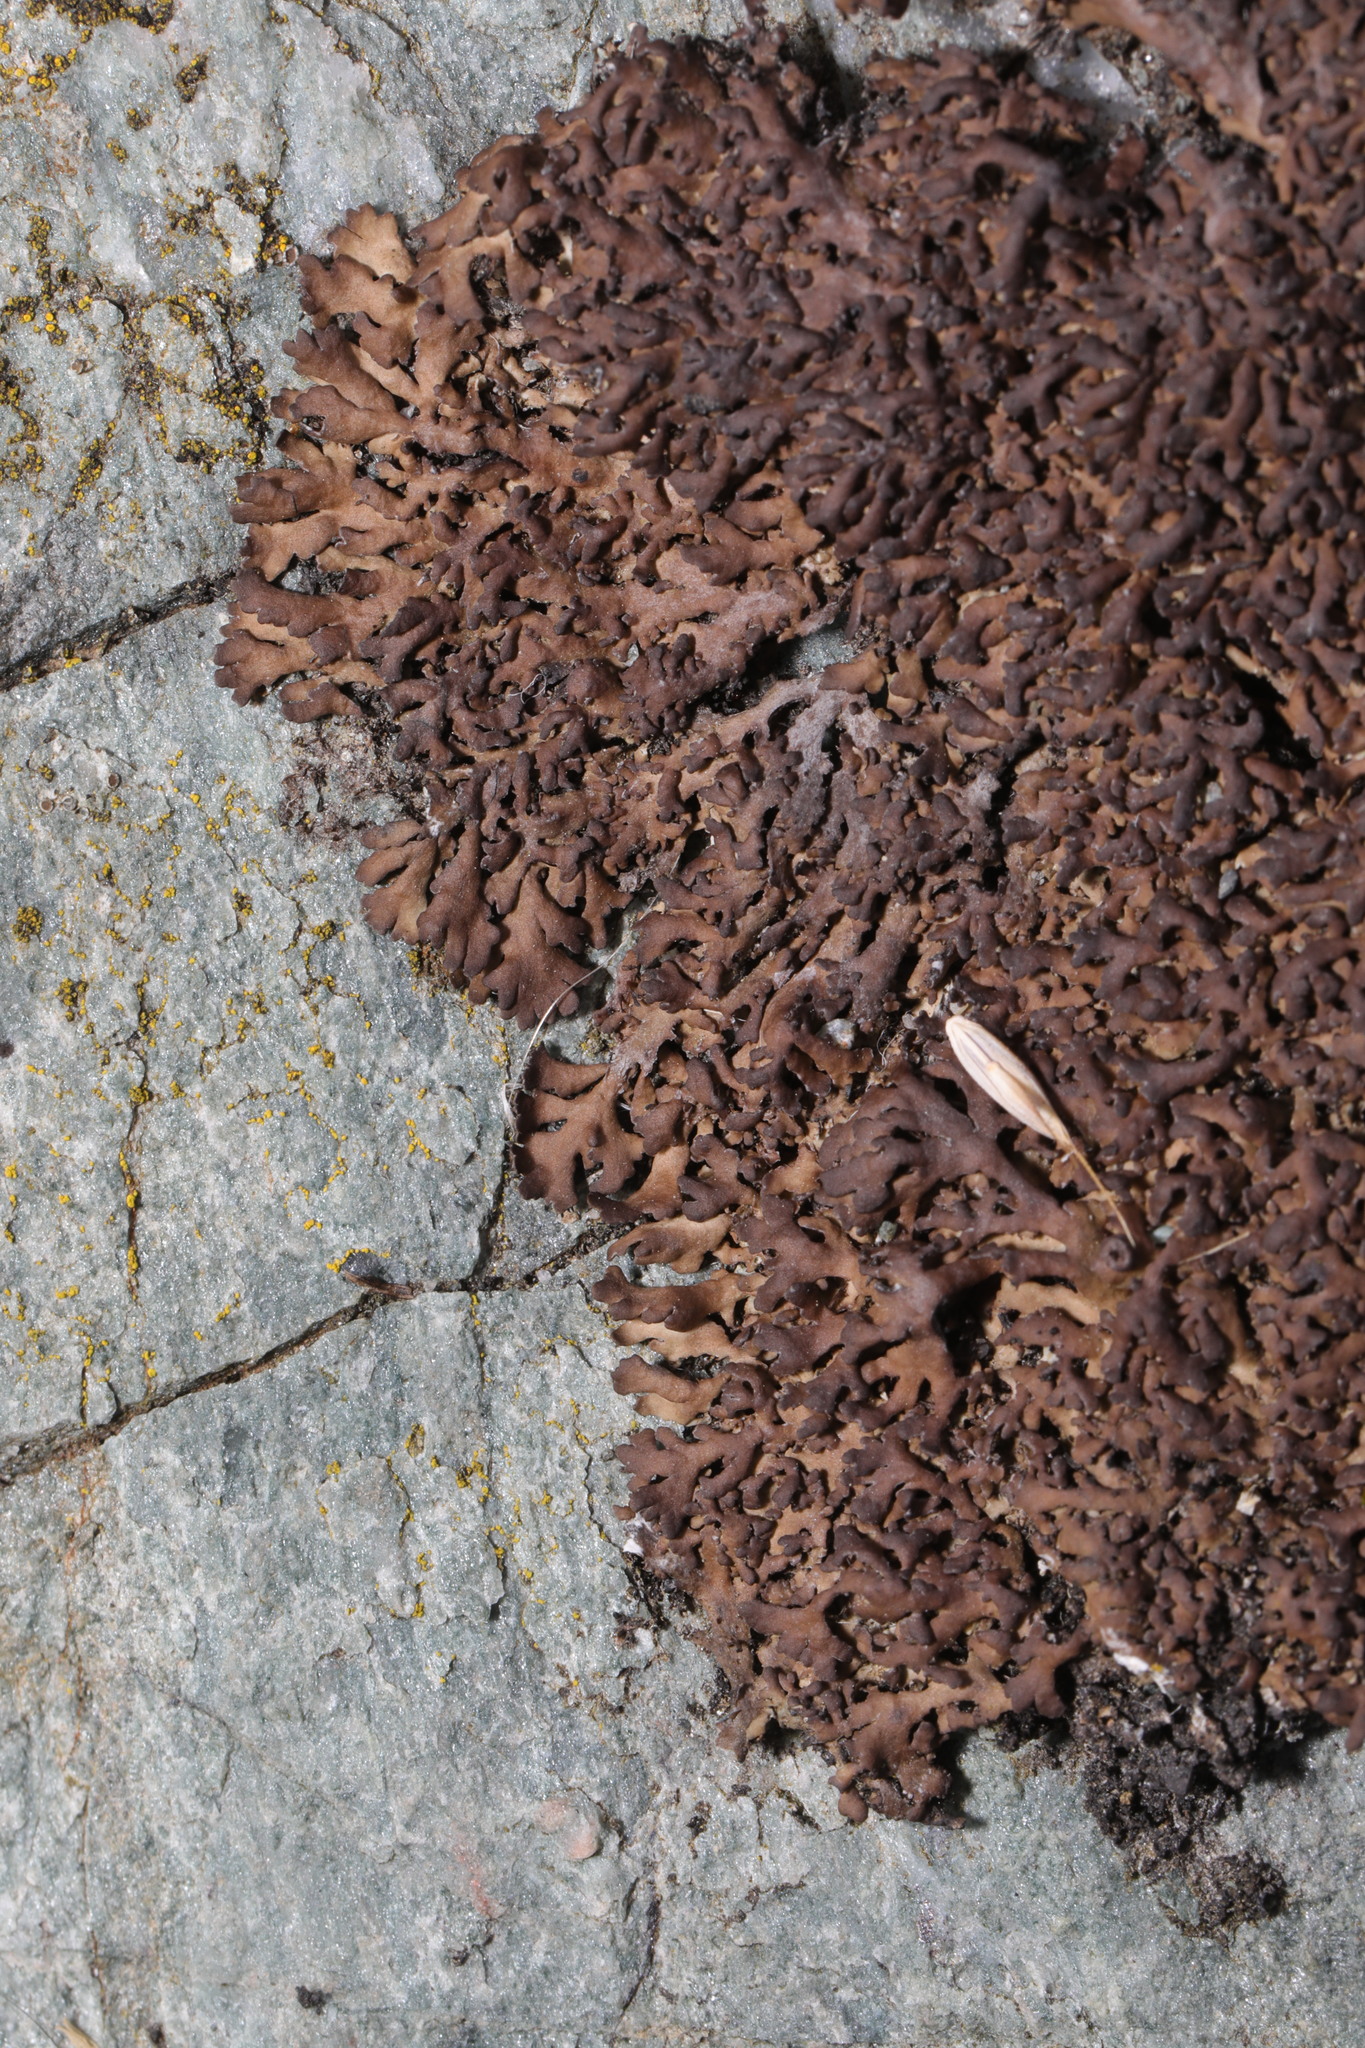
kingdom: Fungi
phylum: Ascomycota
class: Lecanoromycetes
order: Caliciales
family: Physciaceae
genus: Kurokawia
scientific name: Kurokawia runcinata
